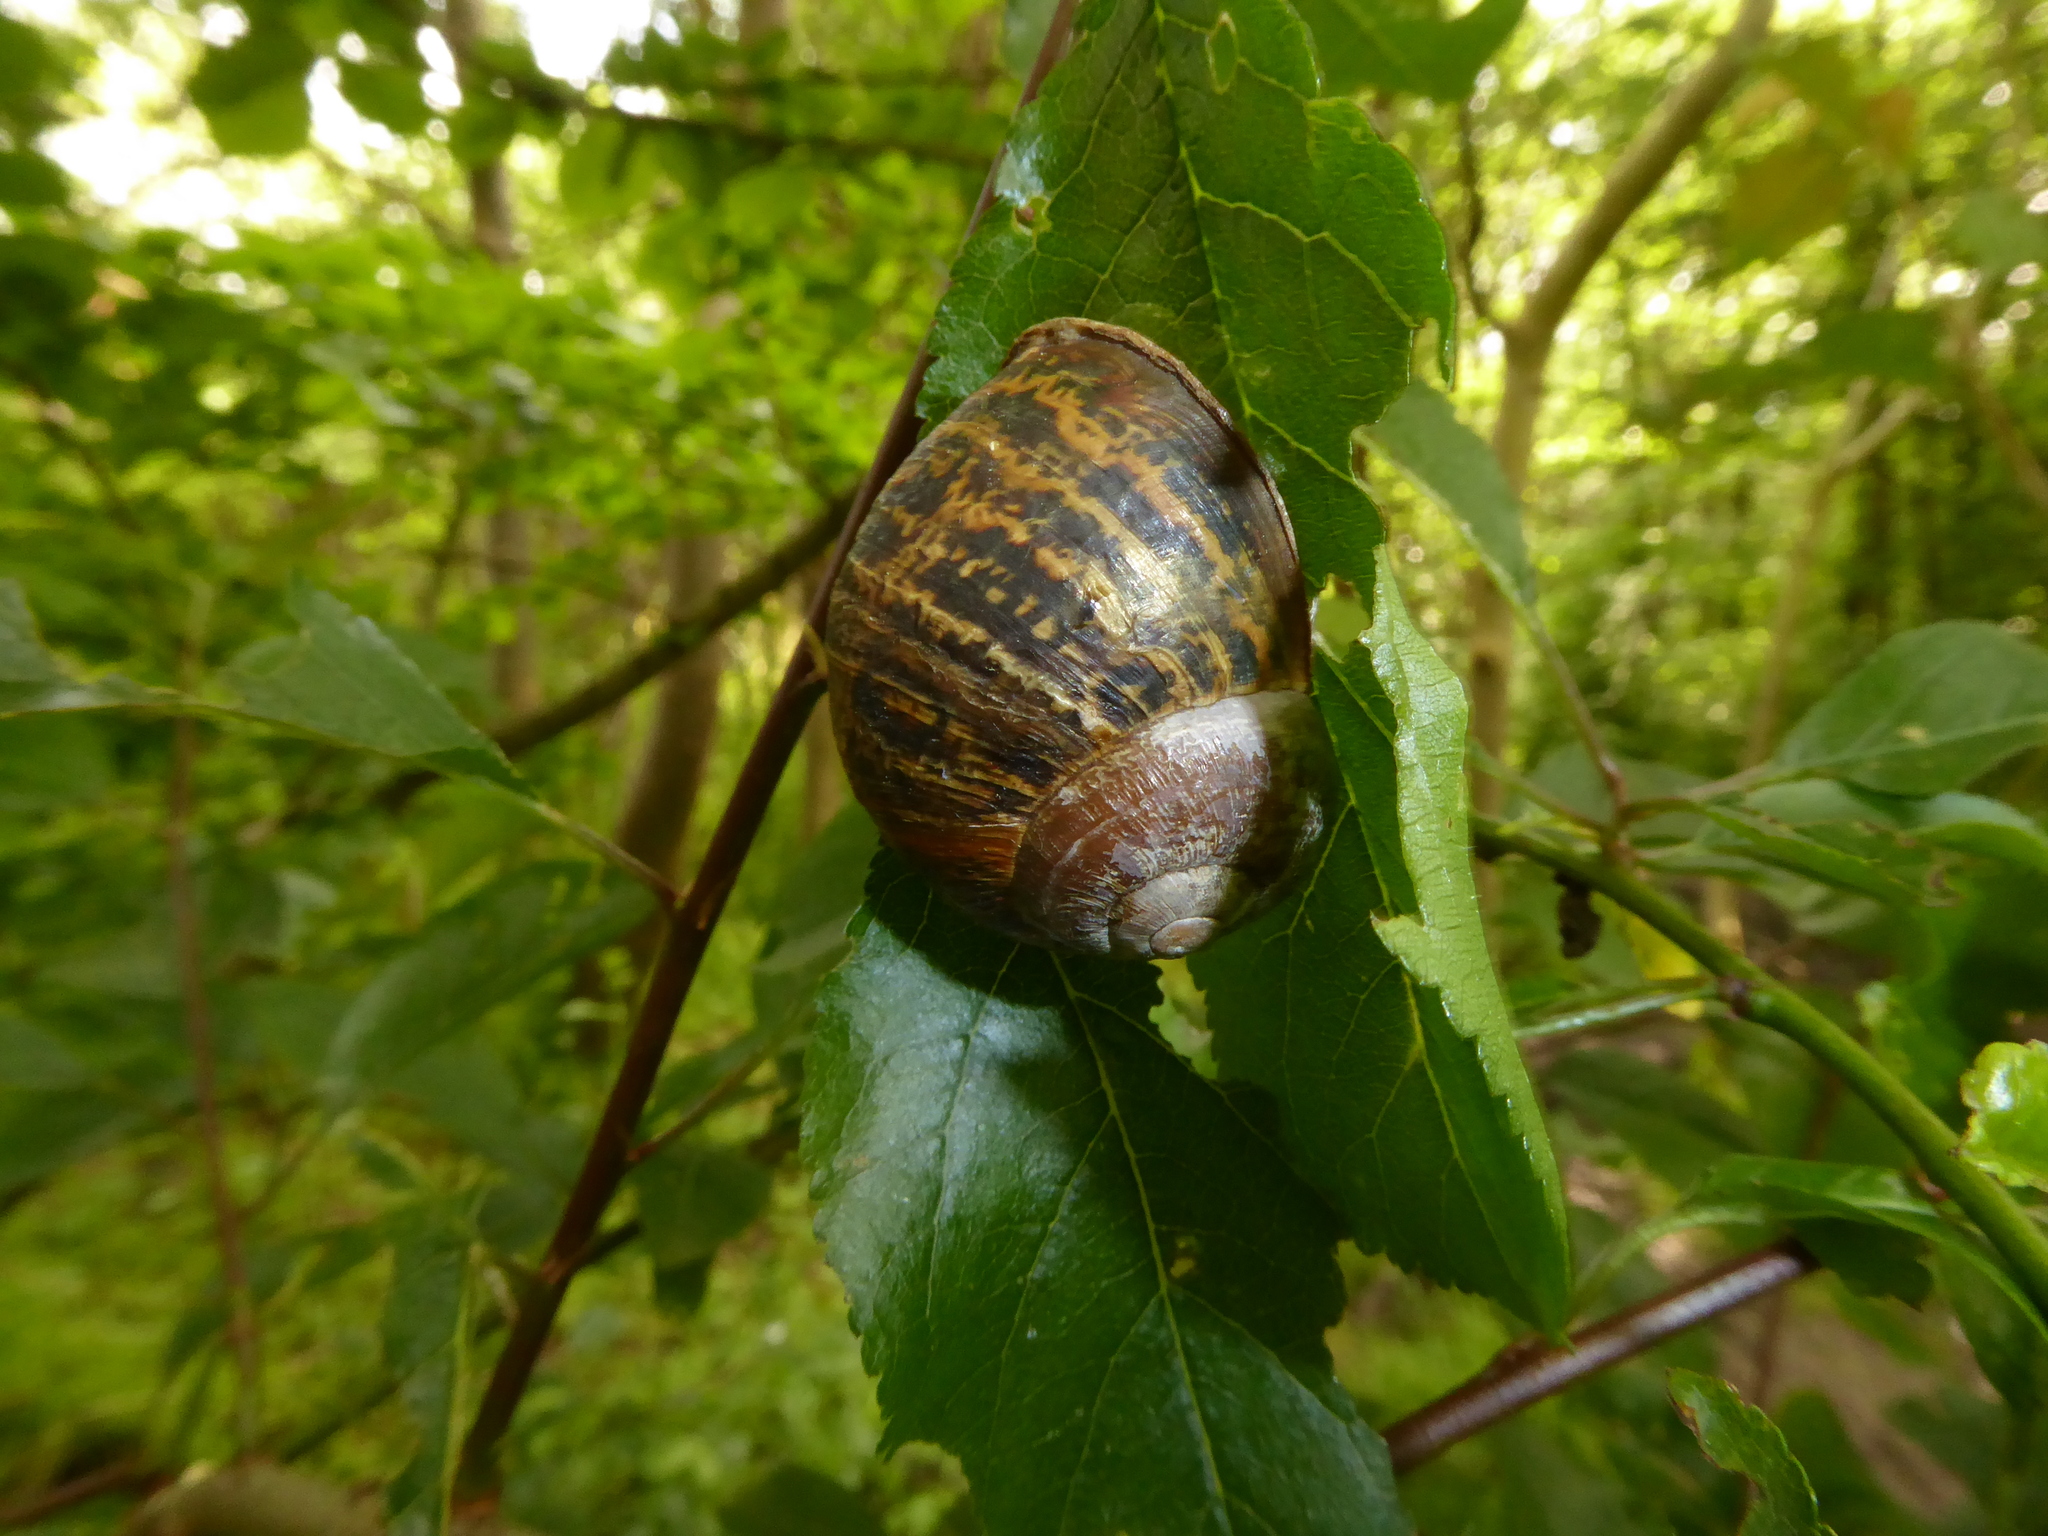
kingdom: Animalia
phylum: Mollusca
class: Gastropoda
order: Stylommatophora
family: Helicidae
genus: Cornu
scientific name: Cornu aspersum
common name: Brown garden snail
